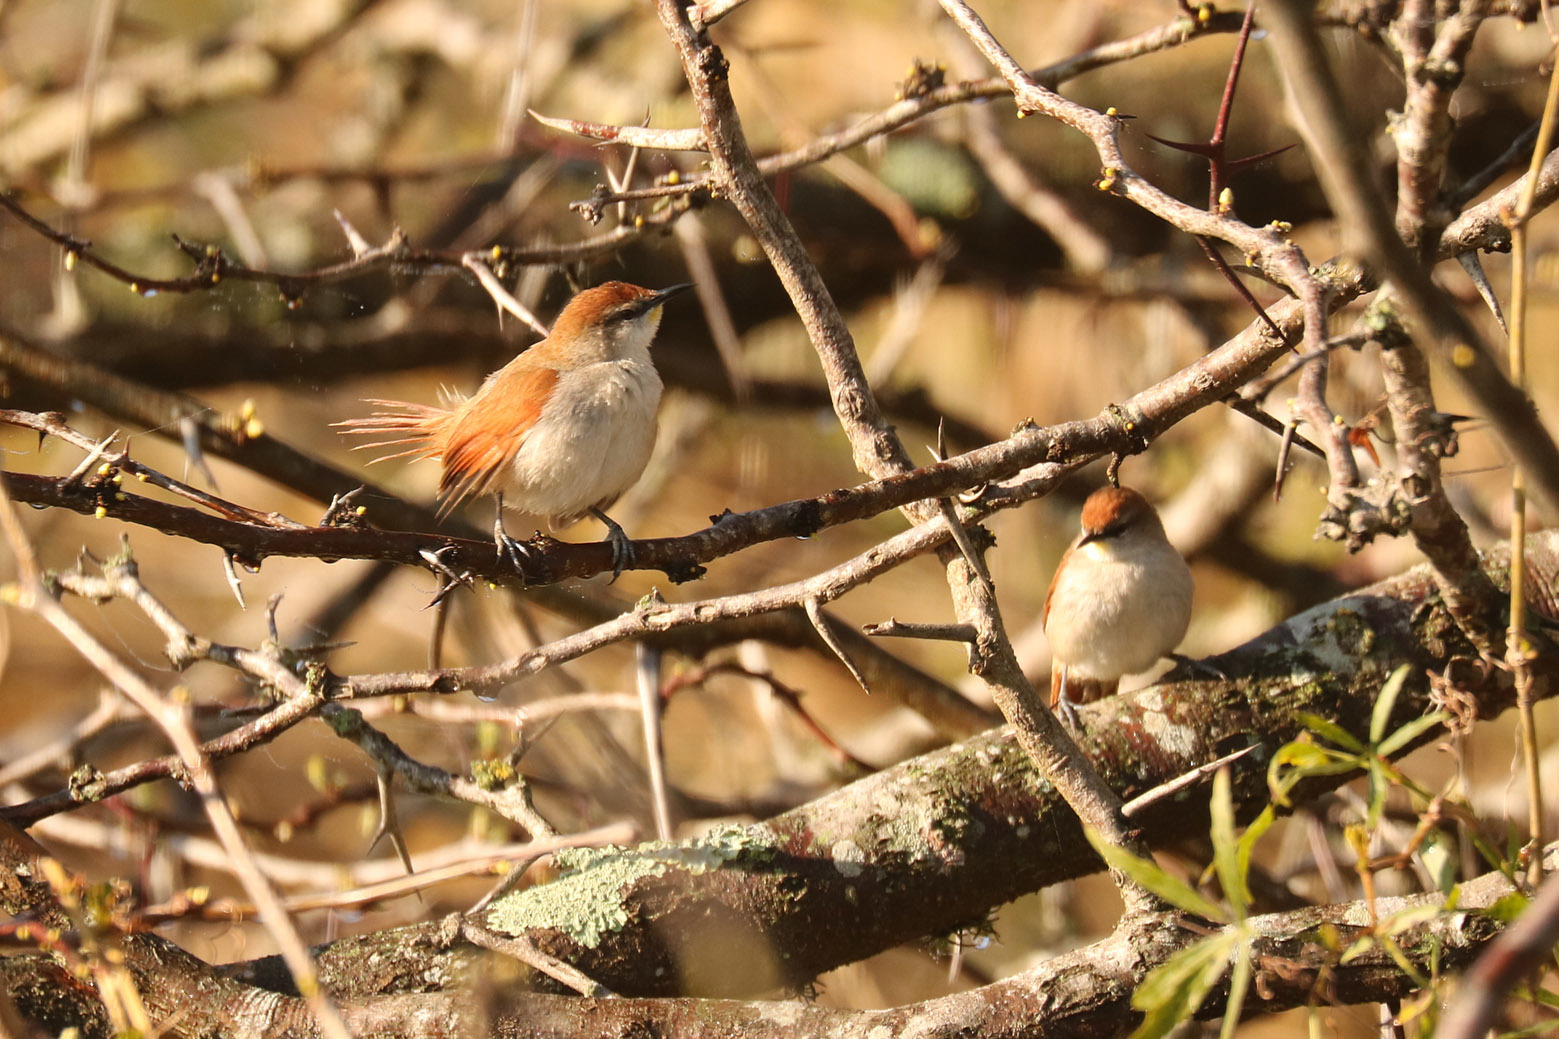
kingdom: Animalia
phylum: Chordata
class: Aves
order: Passeriformes
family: Furnariidae
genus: Certhiaxis
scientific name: Certhiaxis cinnamomeus
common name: Yellow-chinned spinetail
